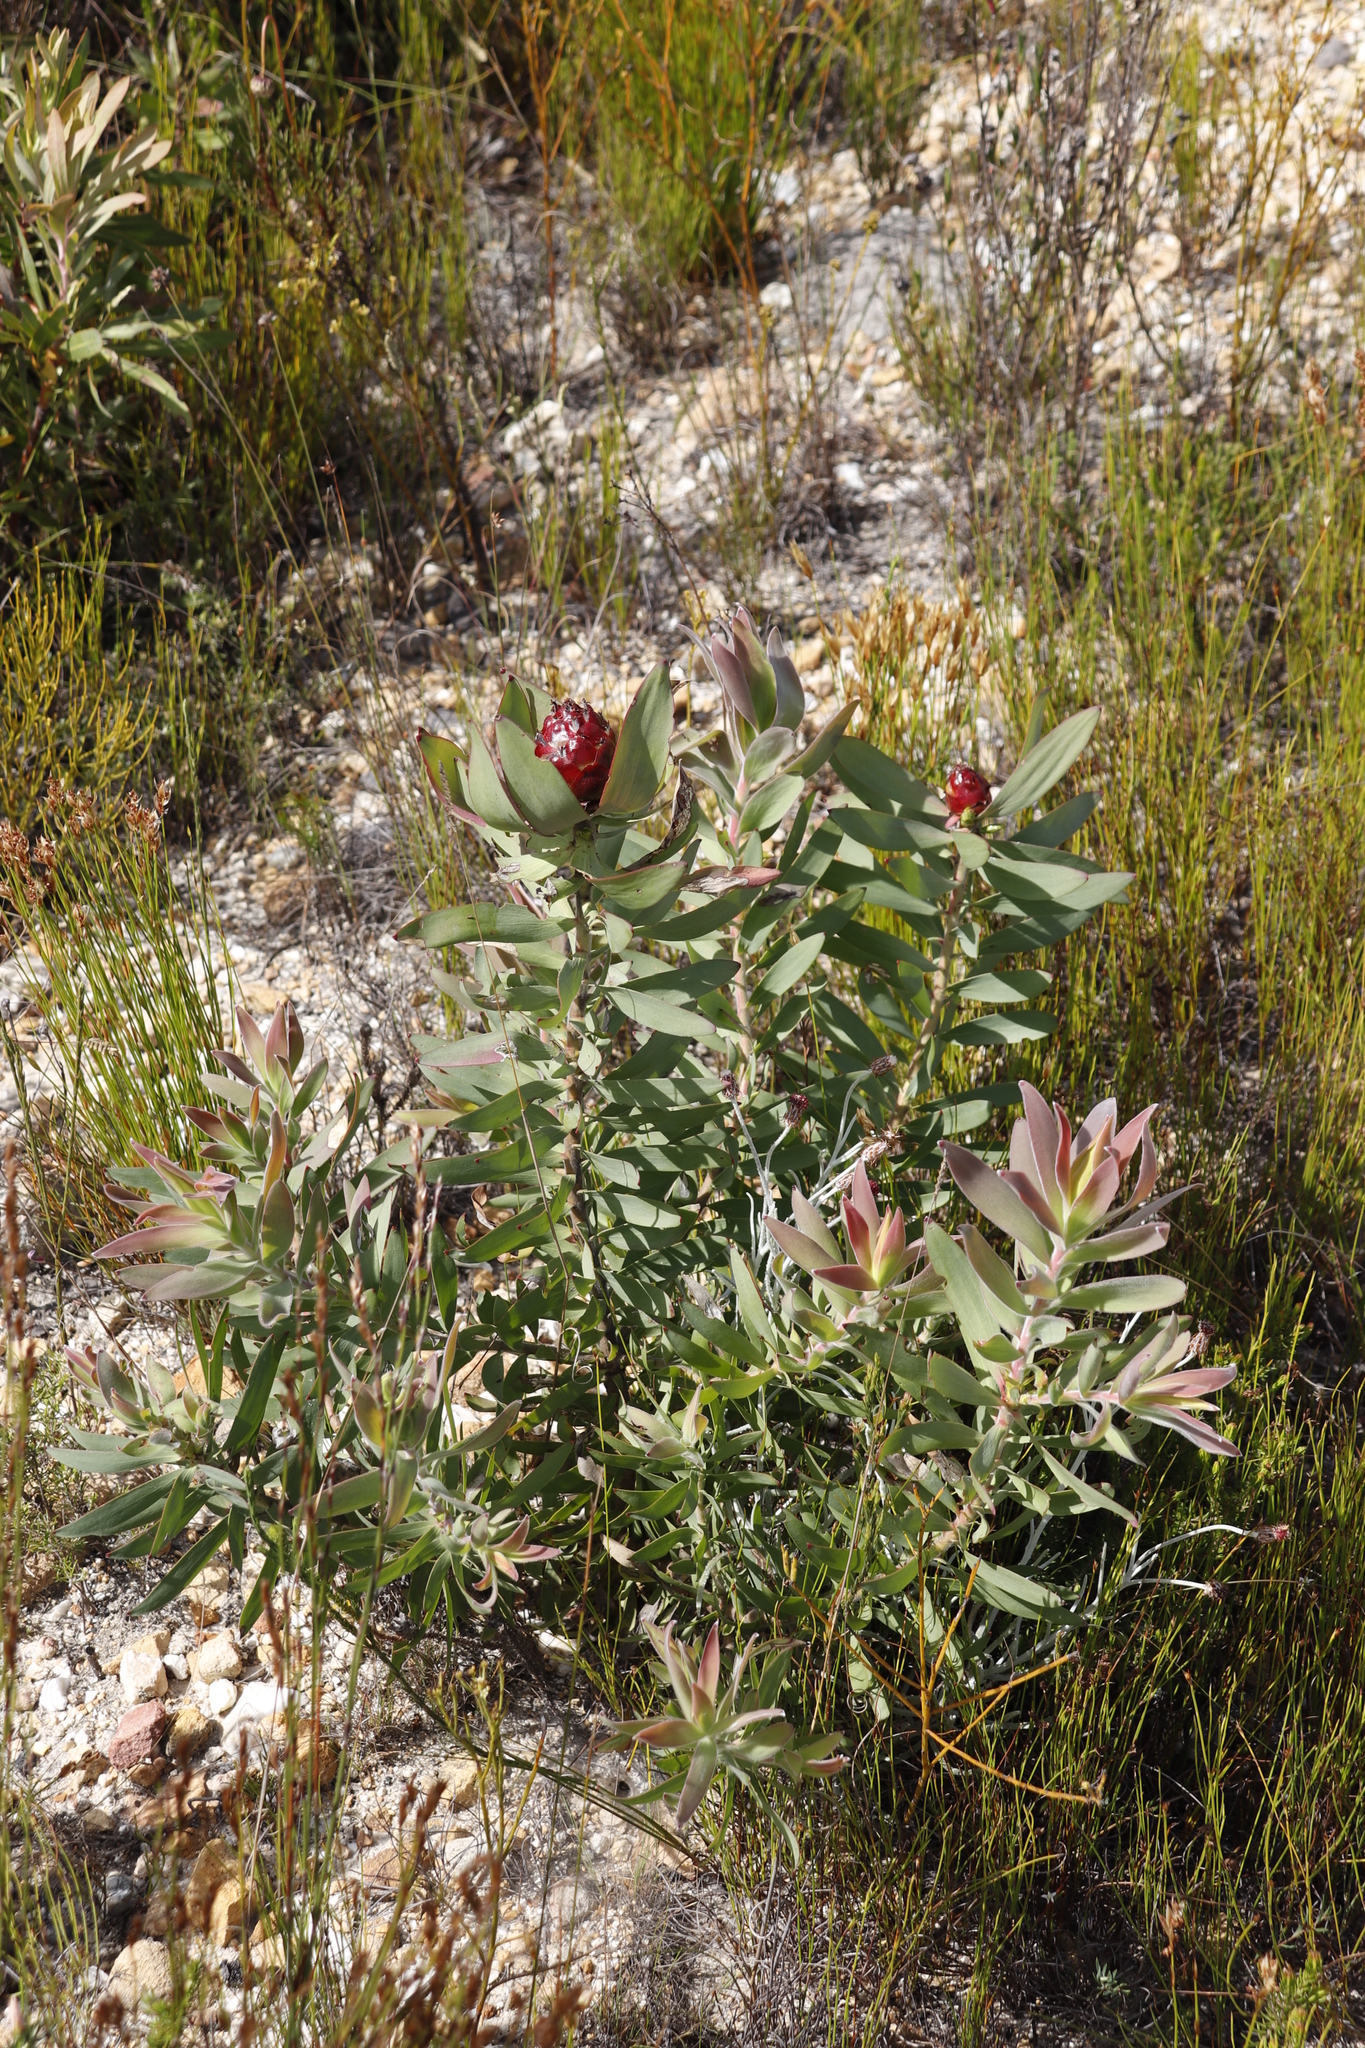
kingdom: Plantae
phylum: Tracheophyta
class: Magnoliopsida
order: Proteales
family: Proteaceae
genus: Leucadendron
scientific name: Leucadendron tinctum
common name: Spicy conebush
